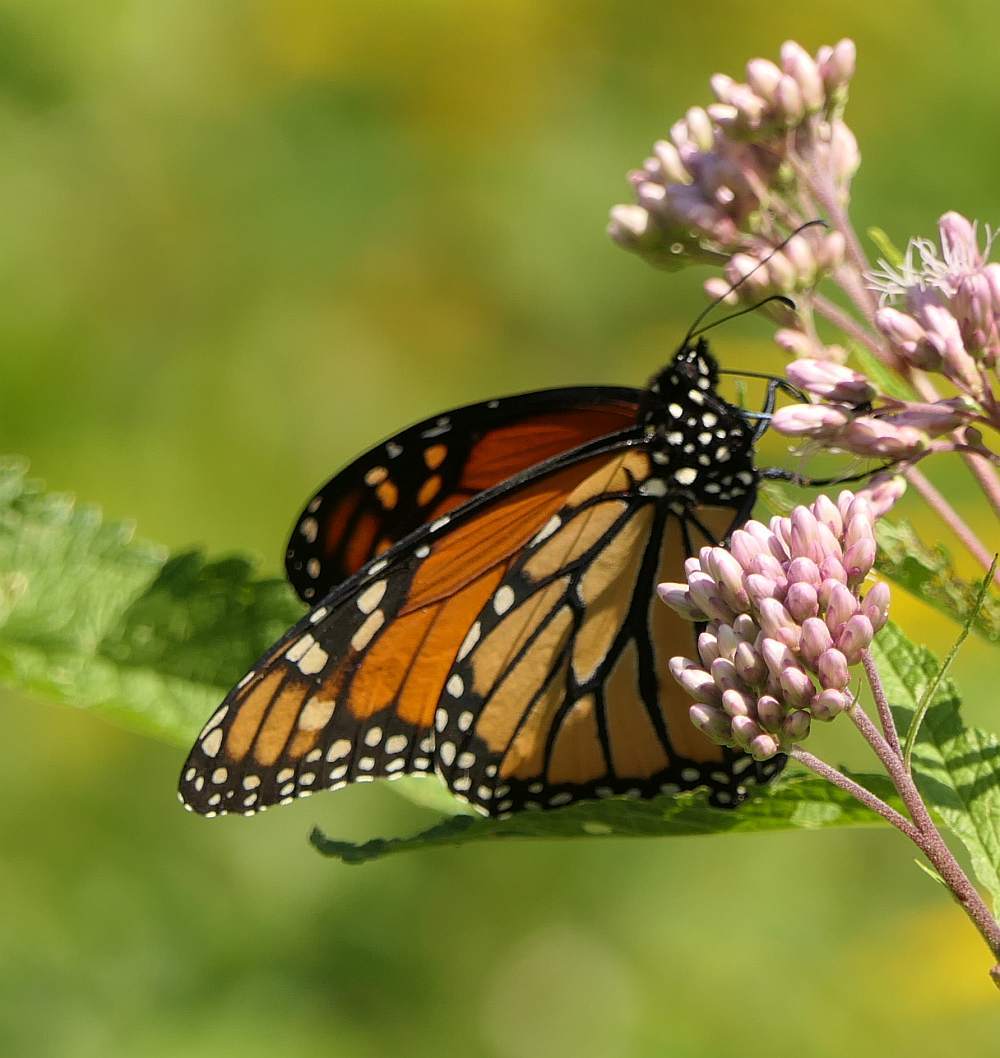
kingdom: Animalia
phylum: Arthropoda
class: Insecta
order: Lepidoptera
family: Nymphalidae
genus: Danaus
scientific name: Danaus plexippus
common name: Monarch
